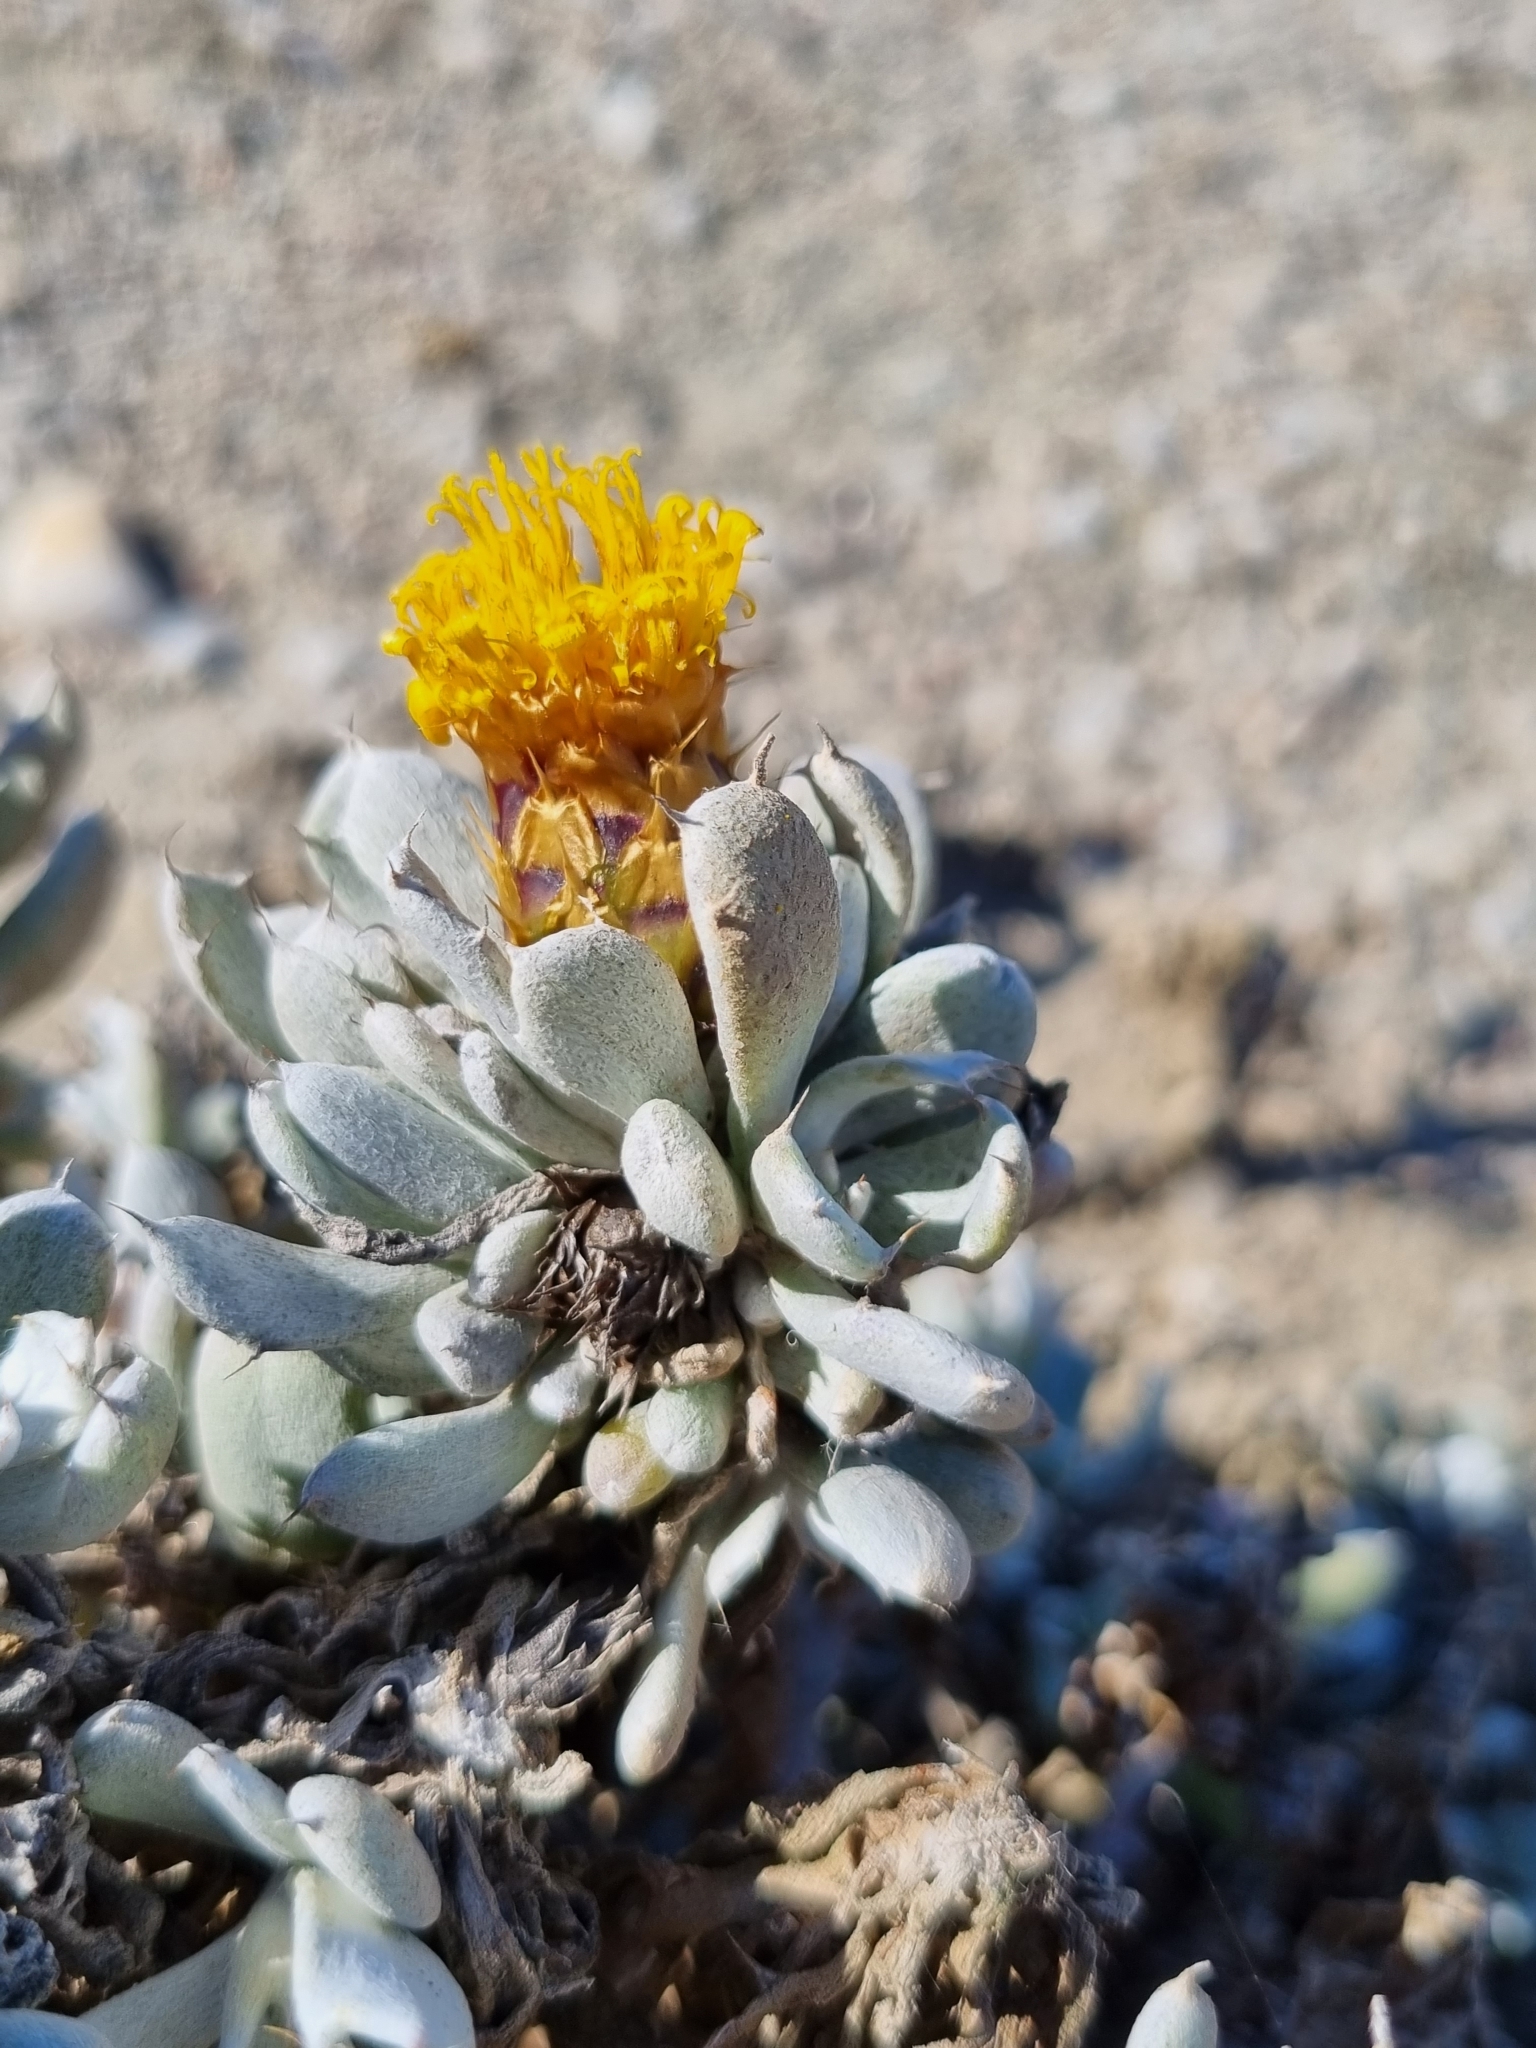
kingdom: Plantae
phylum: Tracheophyta
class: Magnoliopsida
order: Asterales
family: Asteraceae
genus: Eremothamnus
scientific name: Eremothamnus marlothianus
